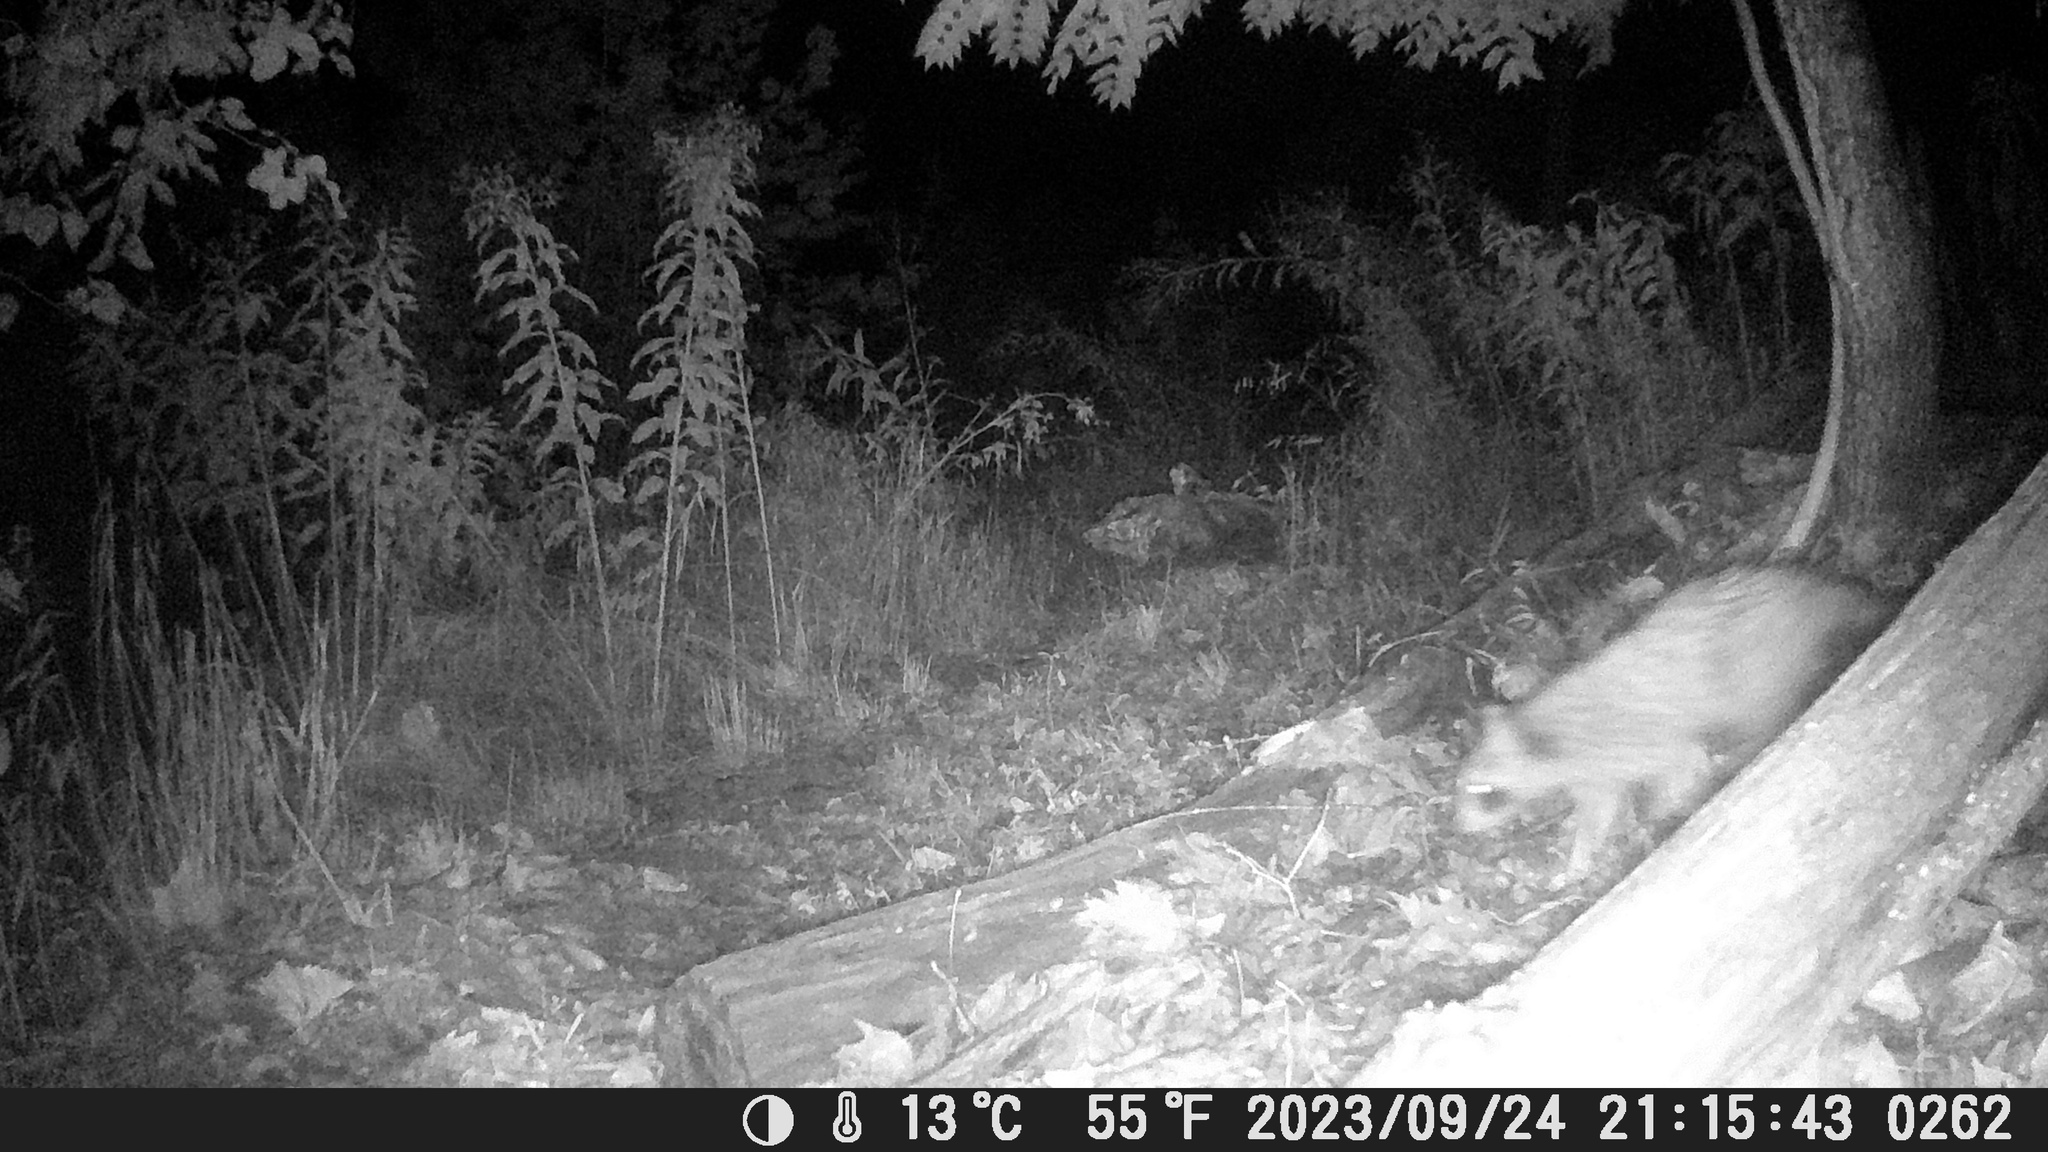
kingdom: Animalia
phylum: Chordata
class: Mammalia
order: Carnivora
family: Procyonidae
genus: Procyon
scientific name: Procyon lotor
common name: Raccoon
